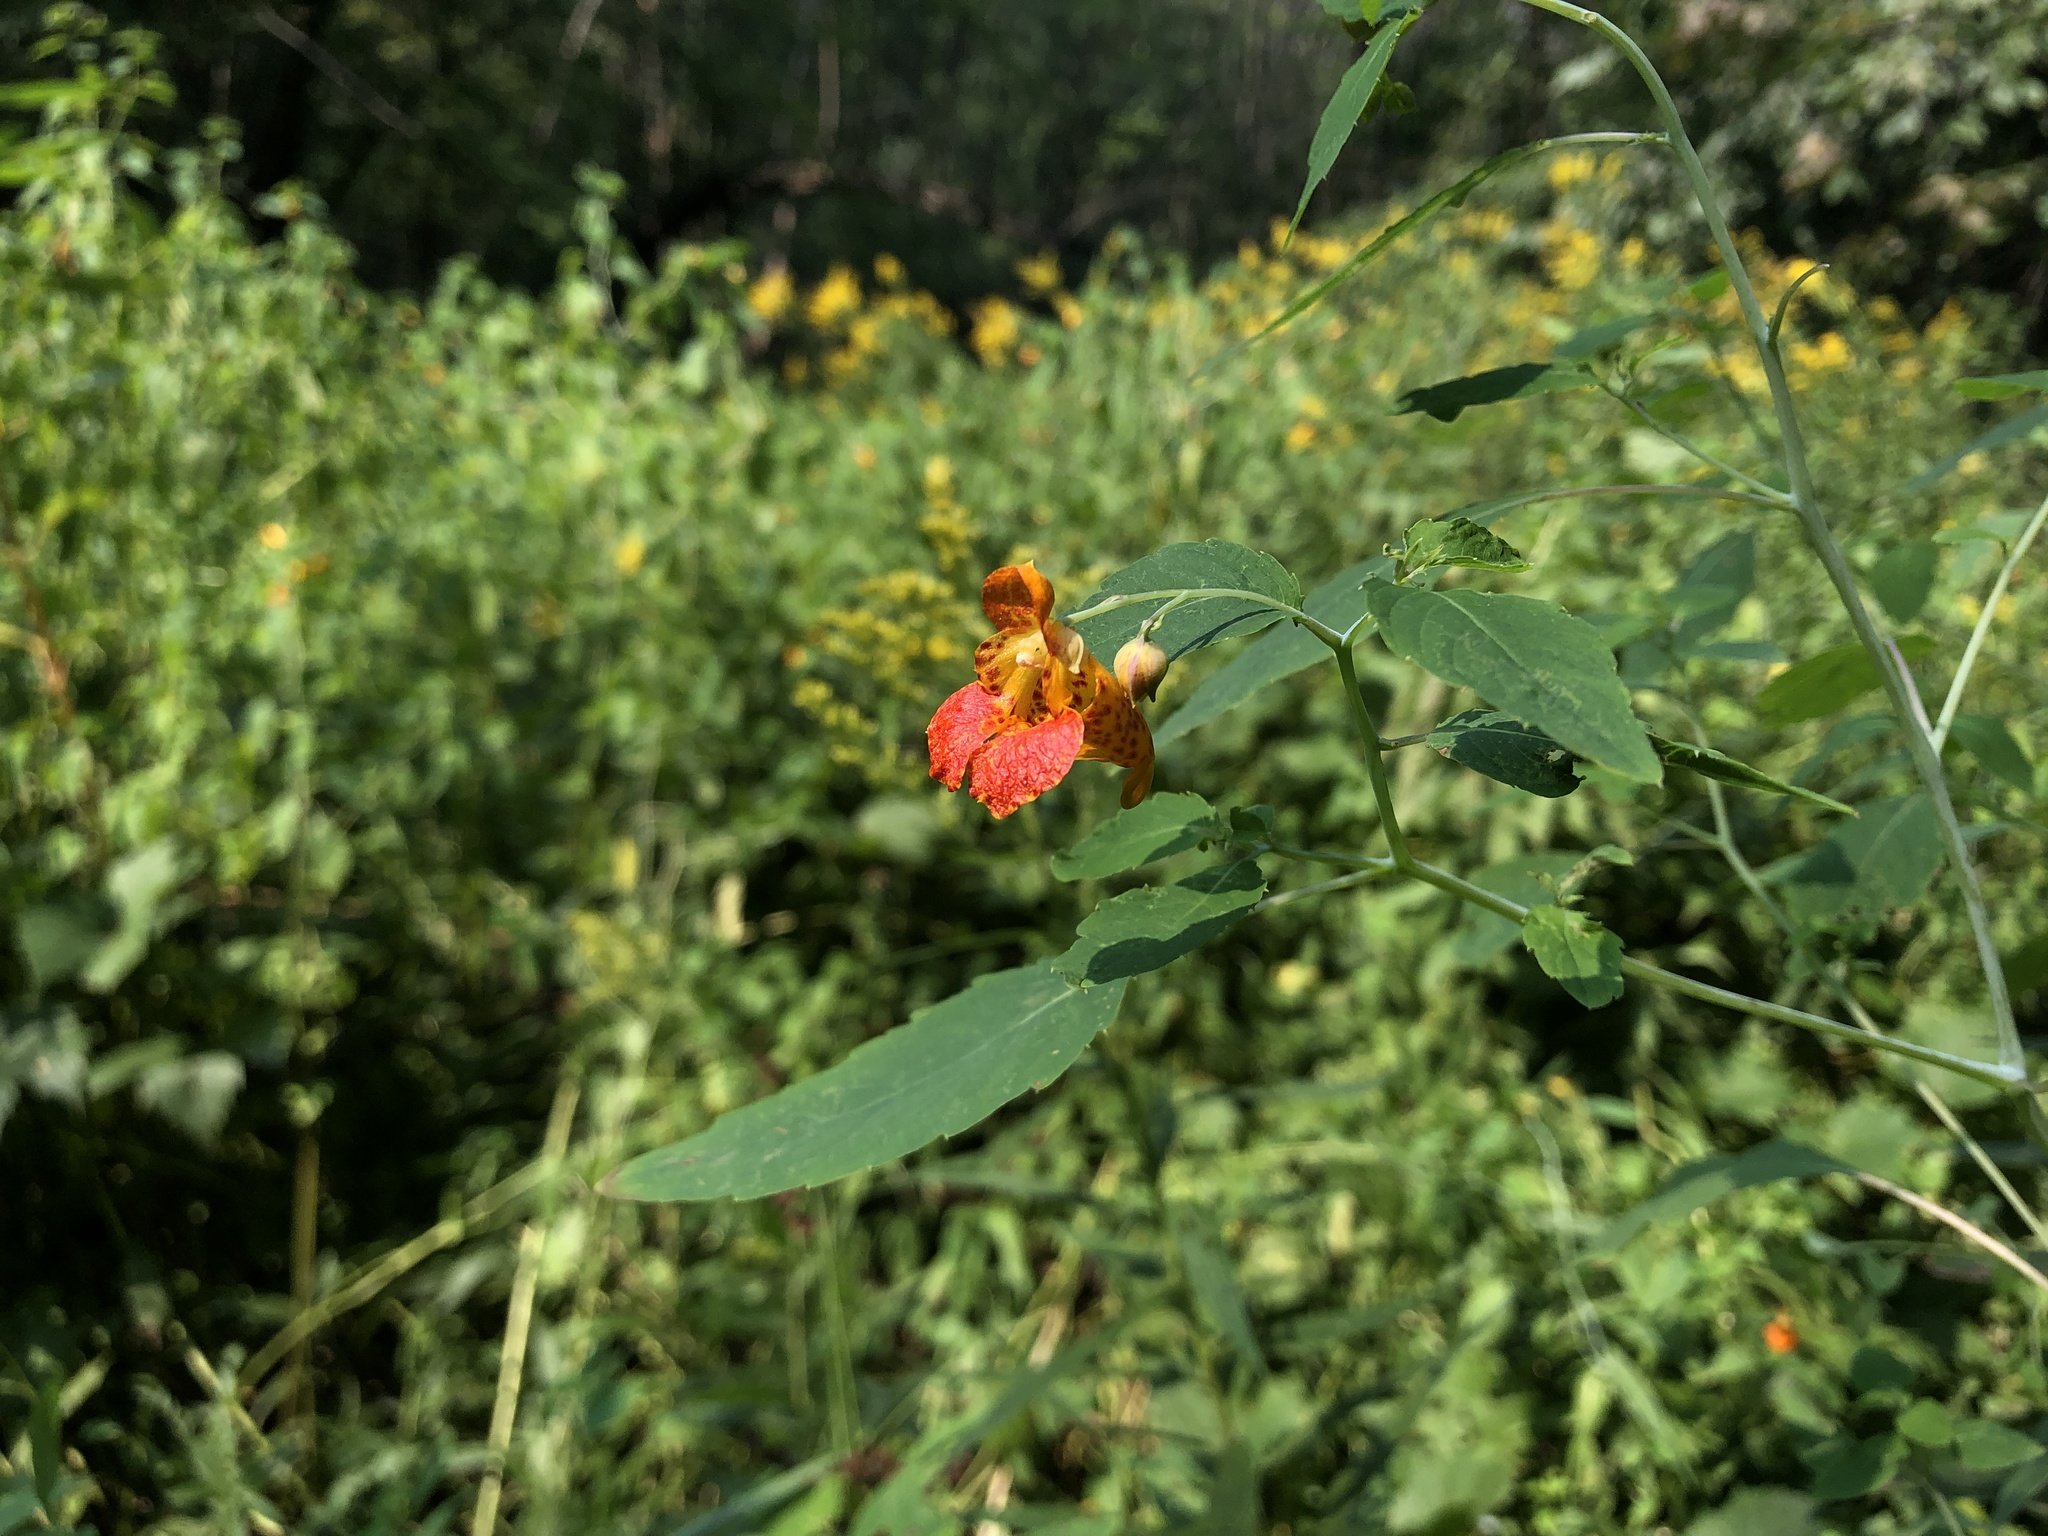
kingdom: Plantae
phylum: Tracheophyta
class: Magnoliopsida
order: Ericales
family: Balsaminaceae
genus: Impatiens
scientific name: Impatiens capensis
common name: Orange balsam
